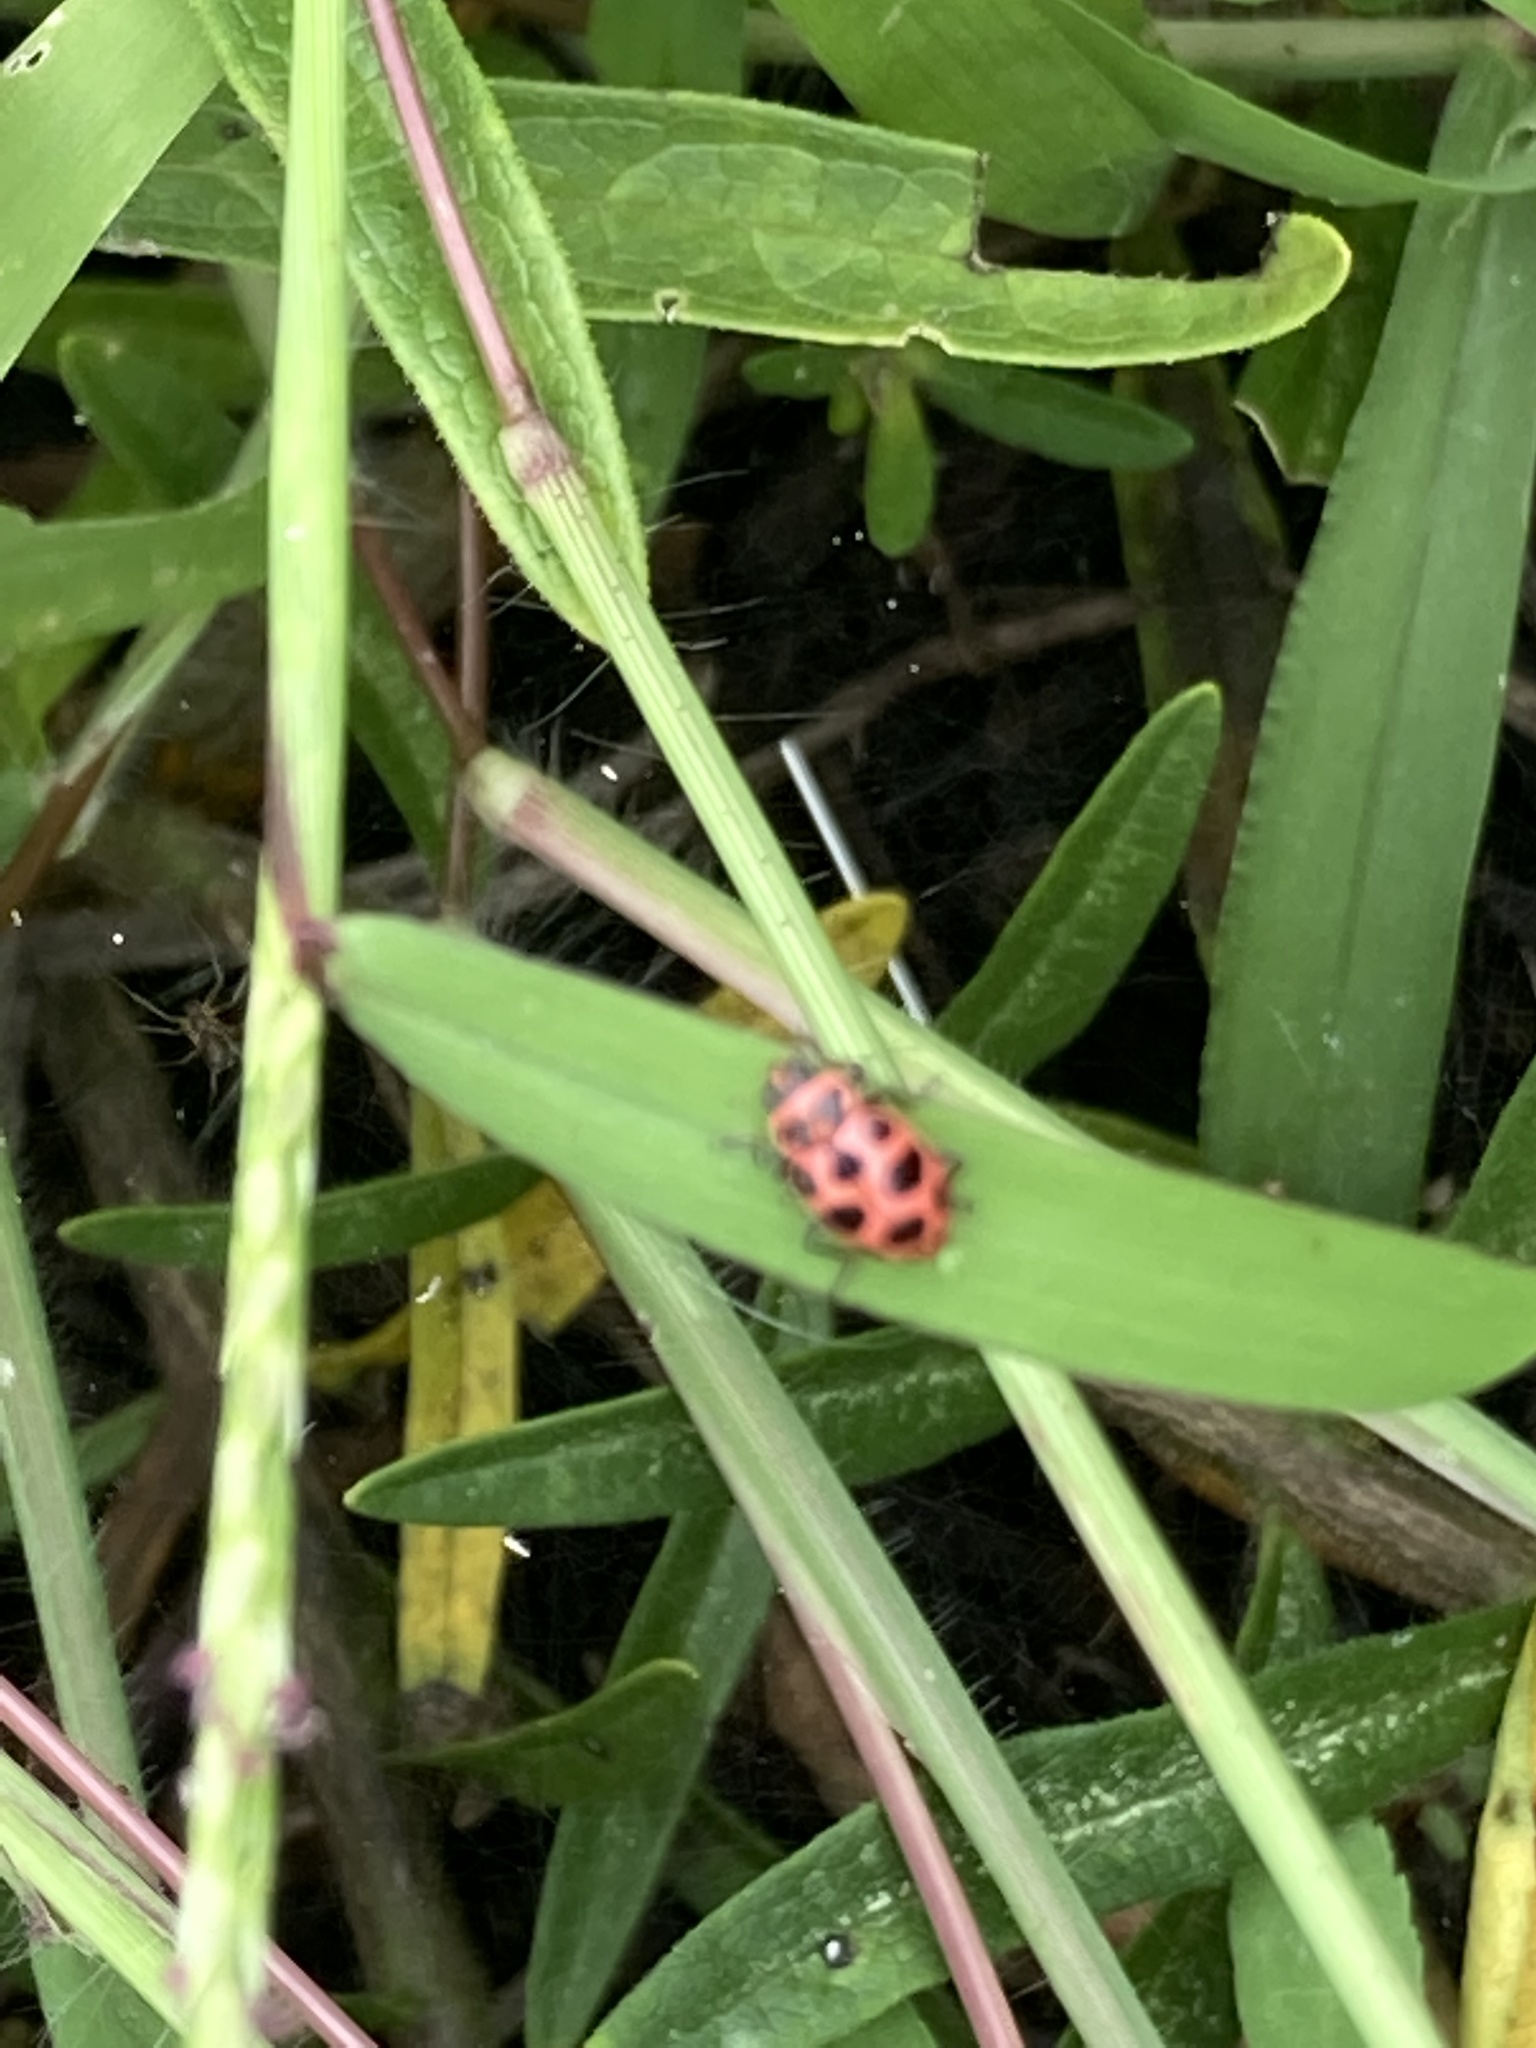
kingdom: Animalia
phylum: Arthropoda
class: Insecta
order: Coleoptera
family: Coccinellidae
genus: Coleomegilla
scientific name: Coleomegilla maculata
